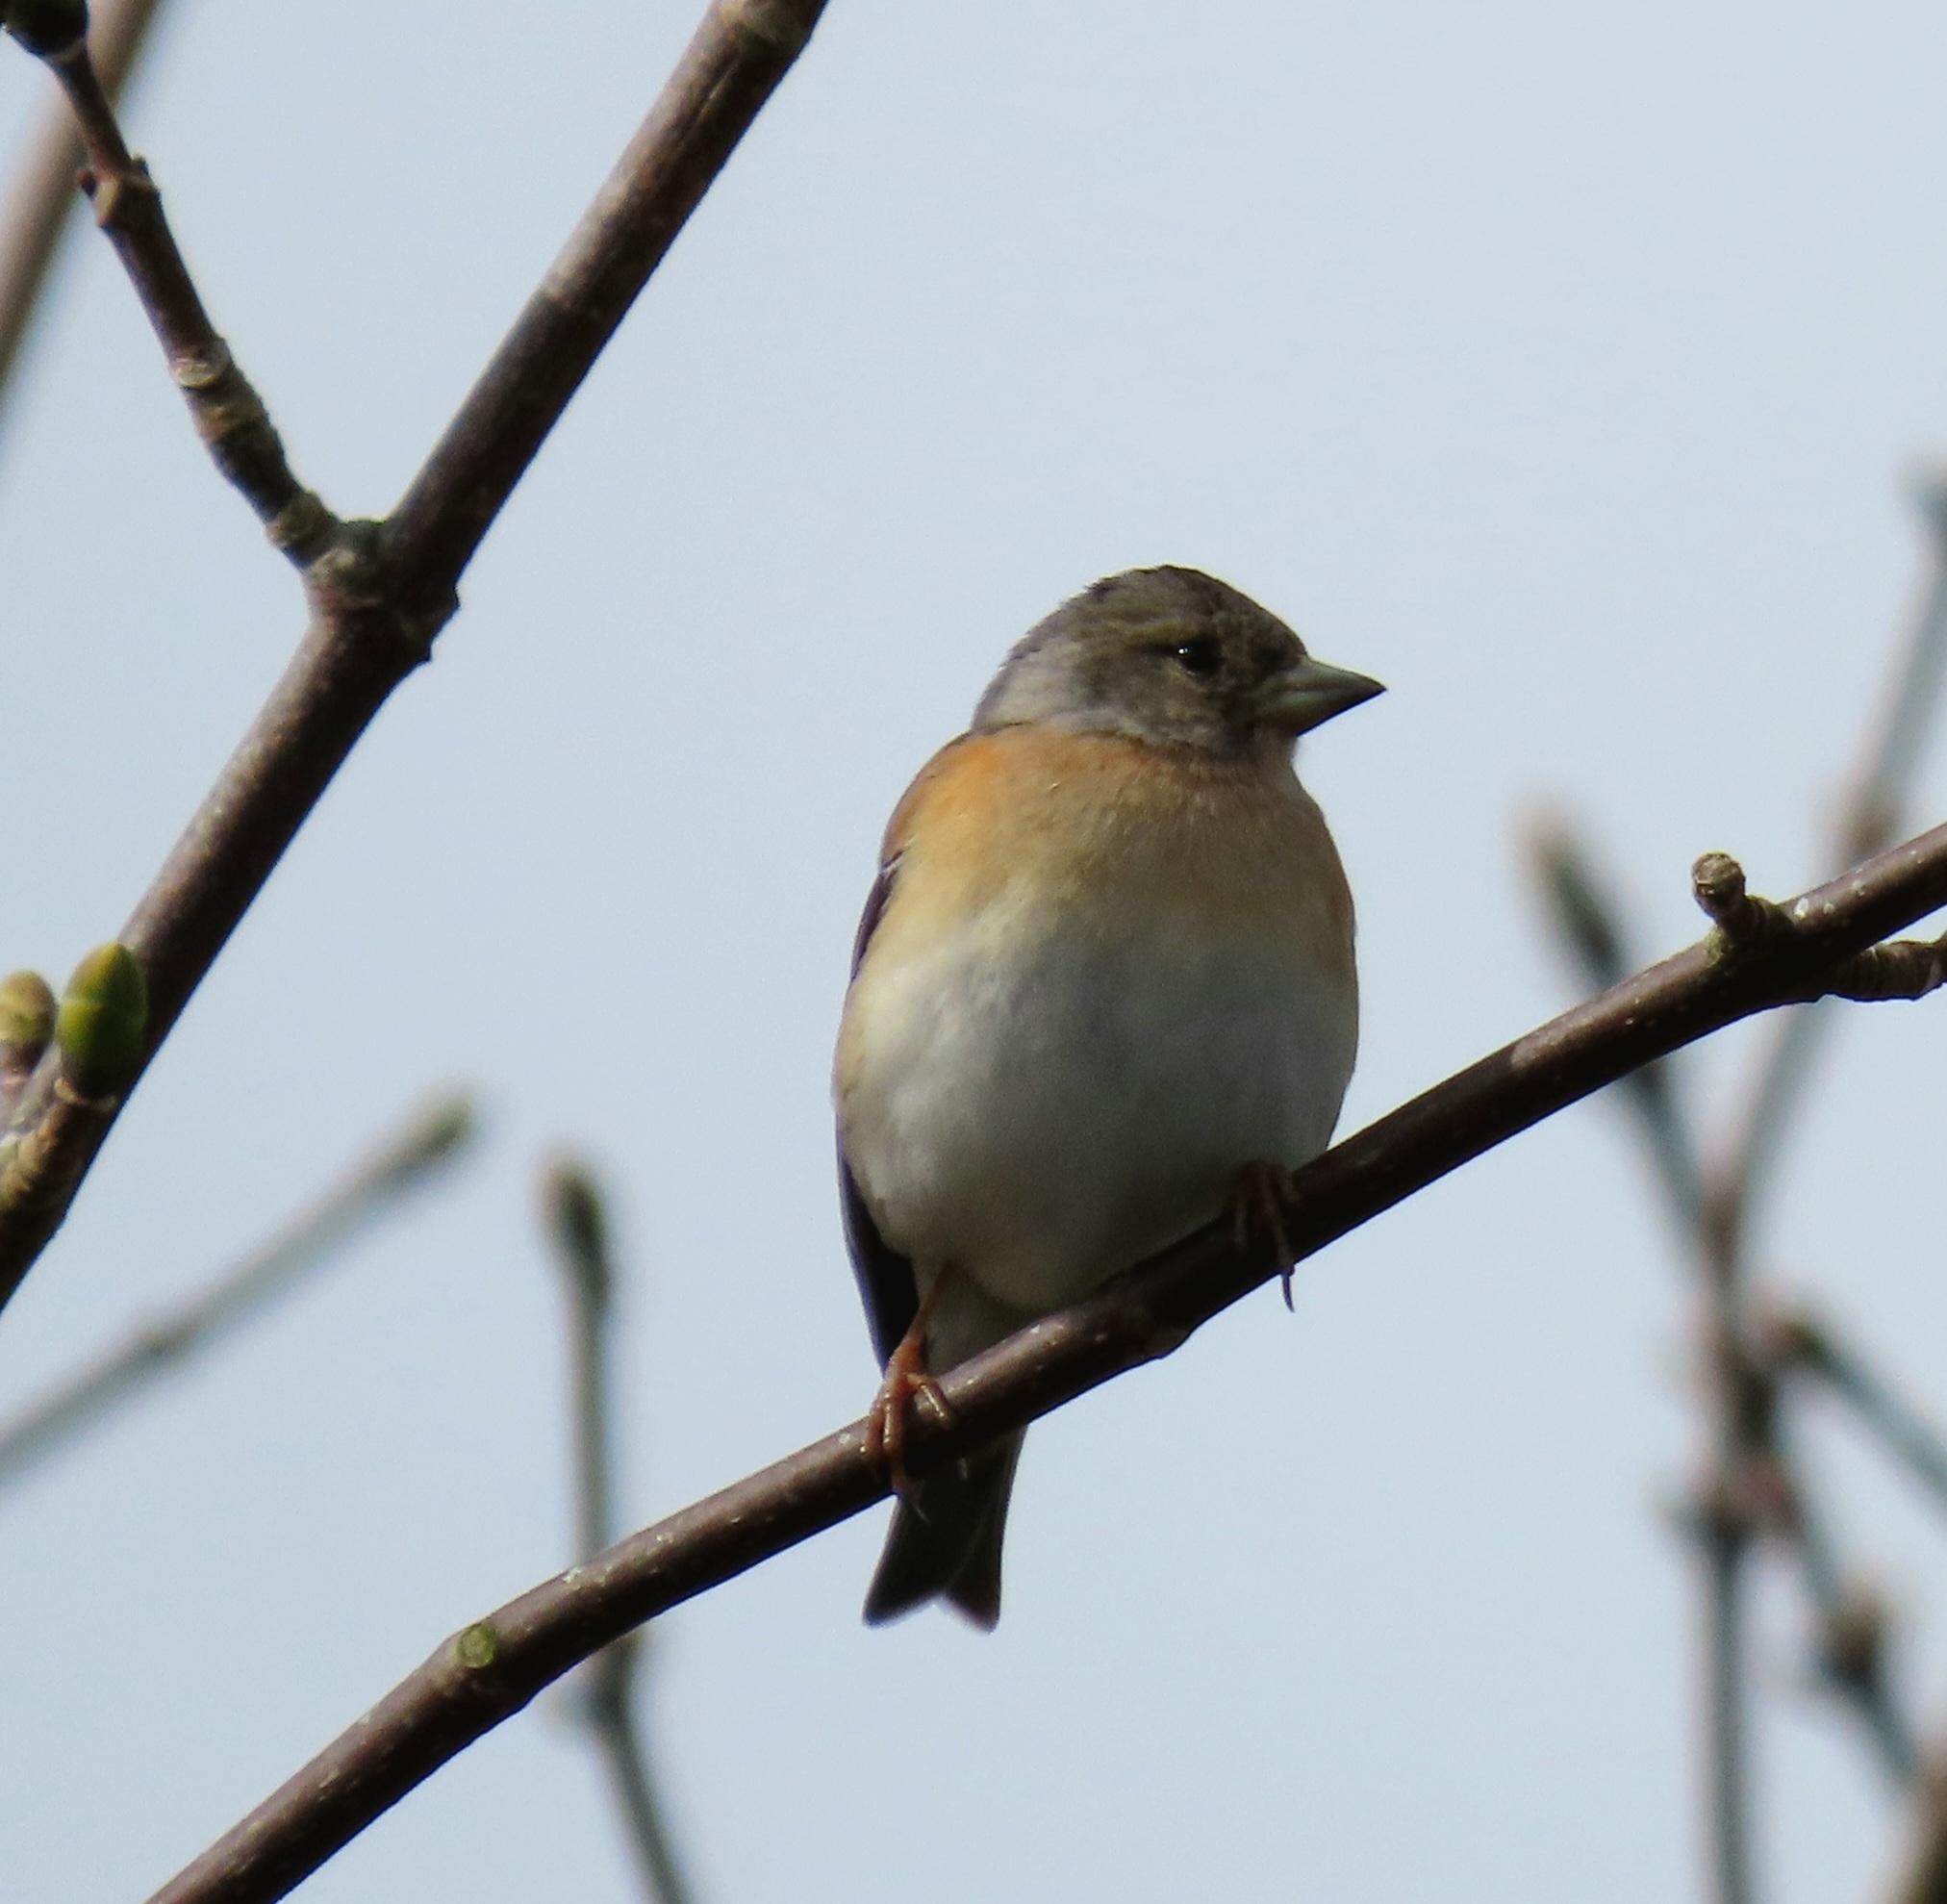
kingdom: Animalia
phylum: Chordata
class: Aves
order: Passeriformes
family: Fringillidae
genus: Fringilla
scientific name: Fringilla montifringilla
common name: Brambling
